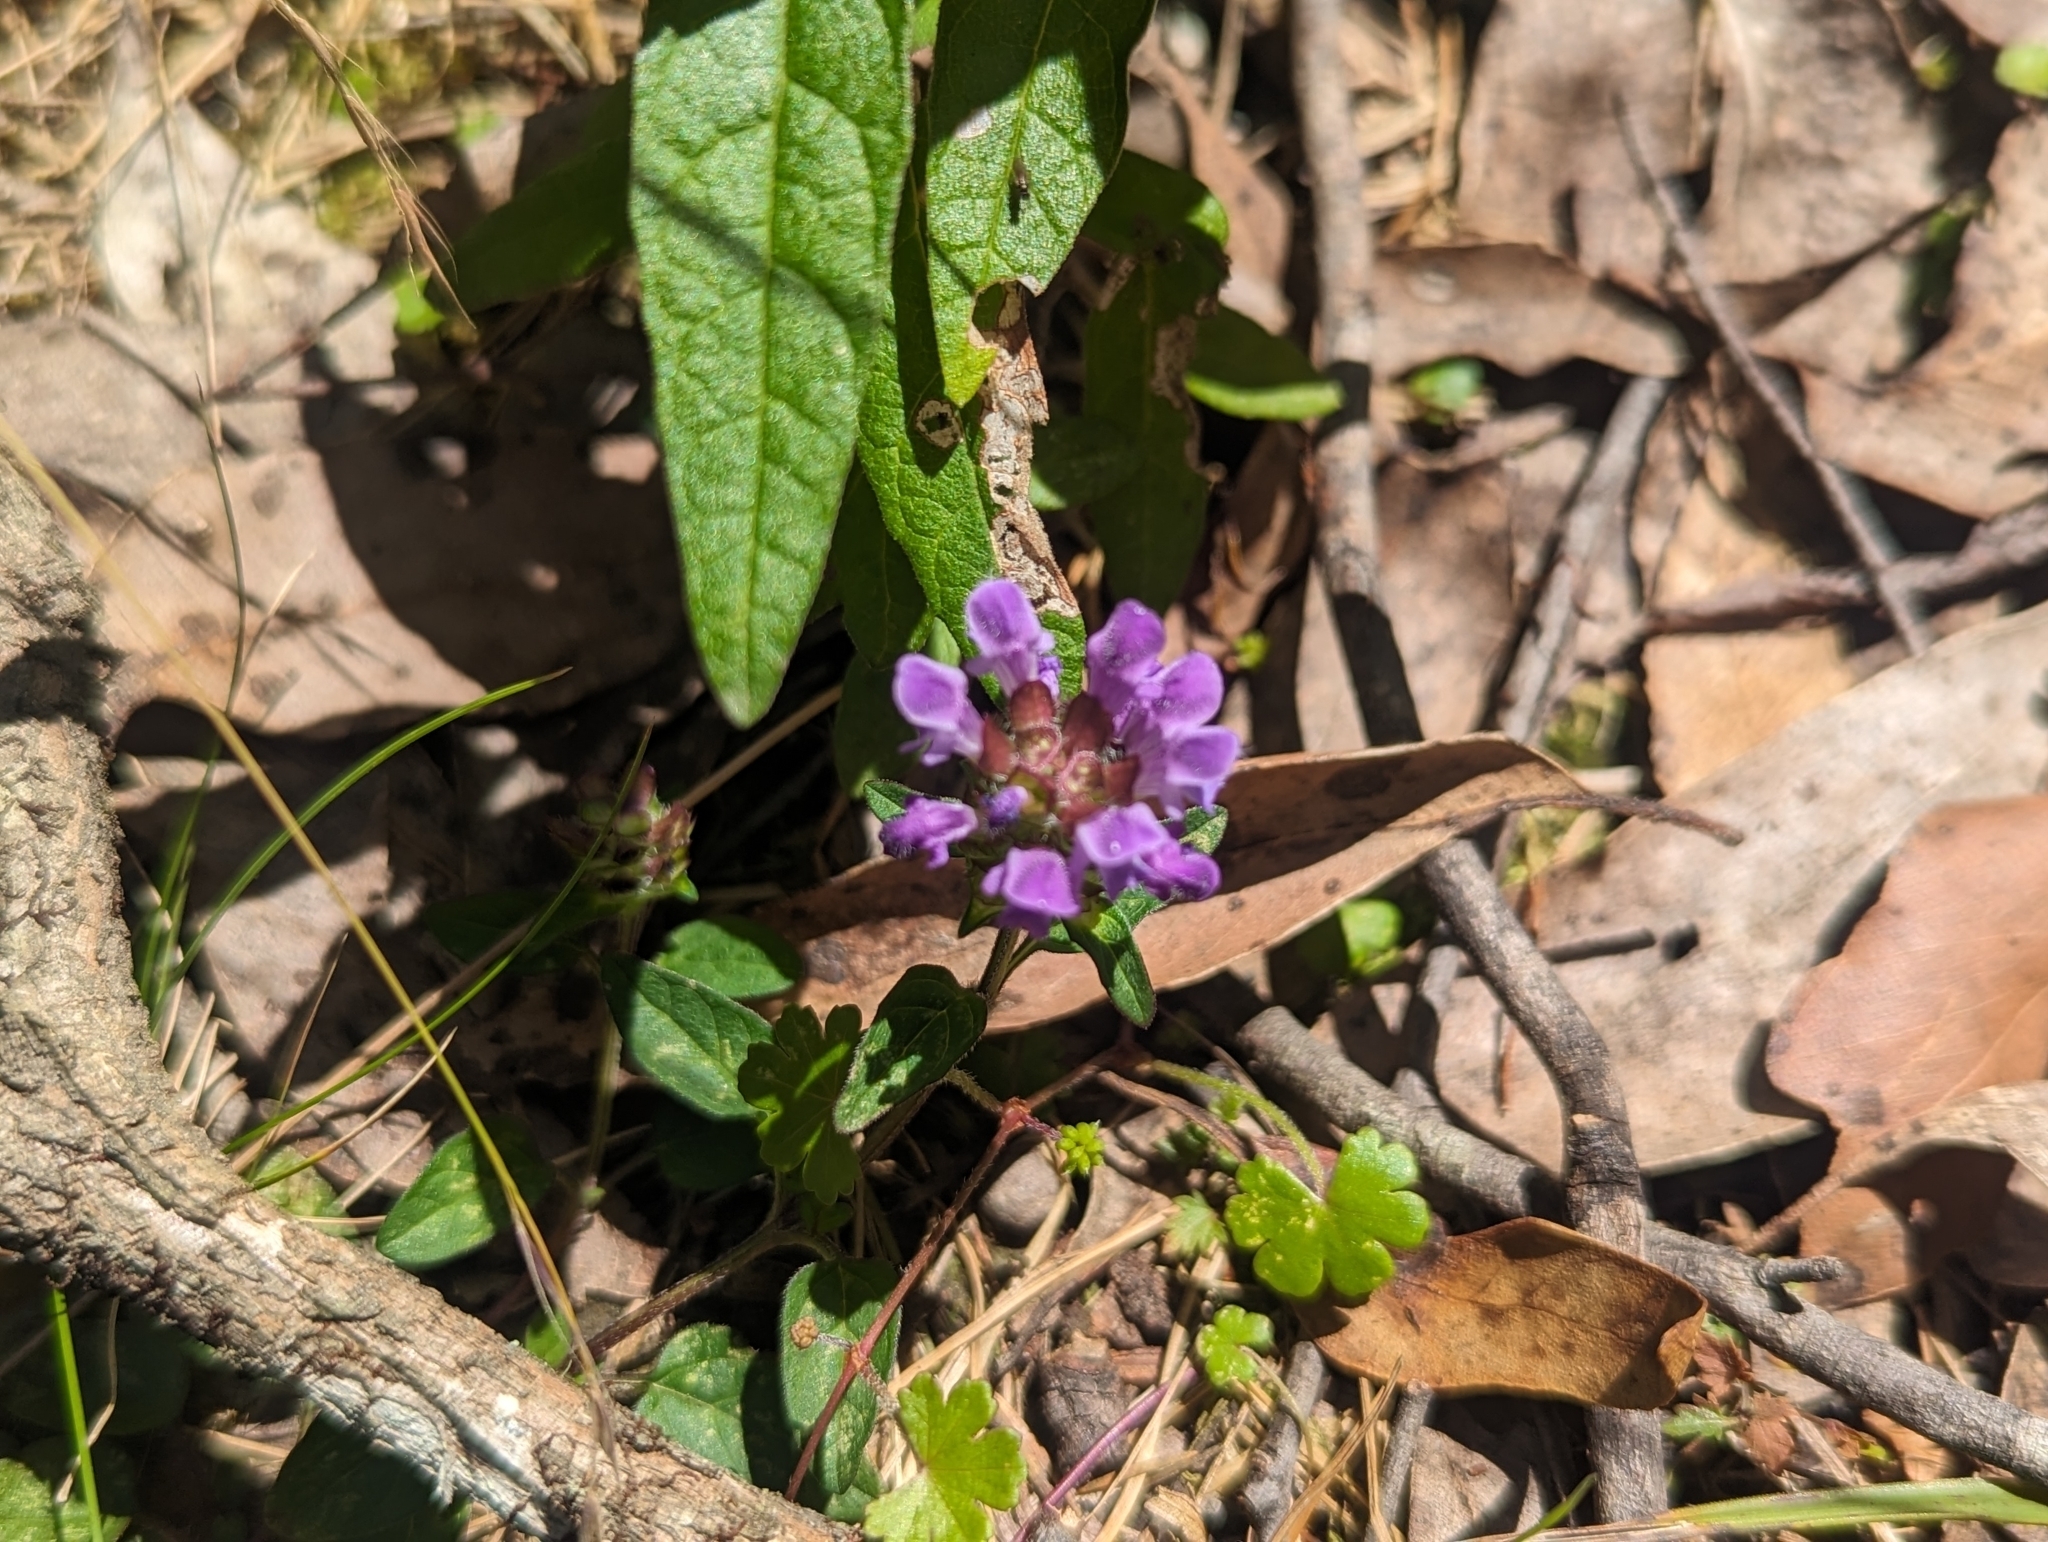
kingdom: Plantae
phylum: Tracheophyta
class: Magnoliopsida
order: Lamiales
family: Lamiaceae
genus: Prunella
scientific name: Prunella vulgaris
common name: Heal-all
